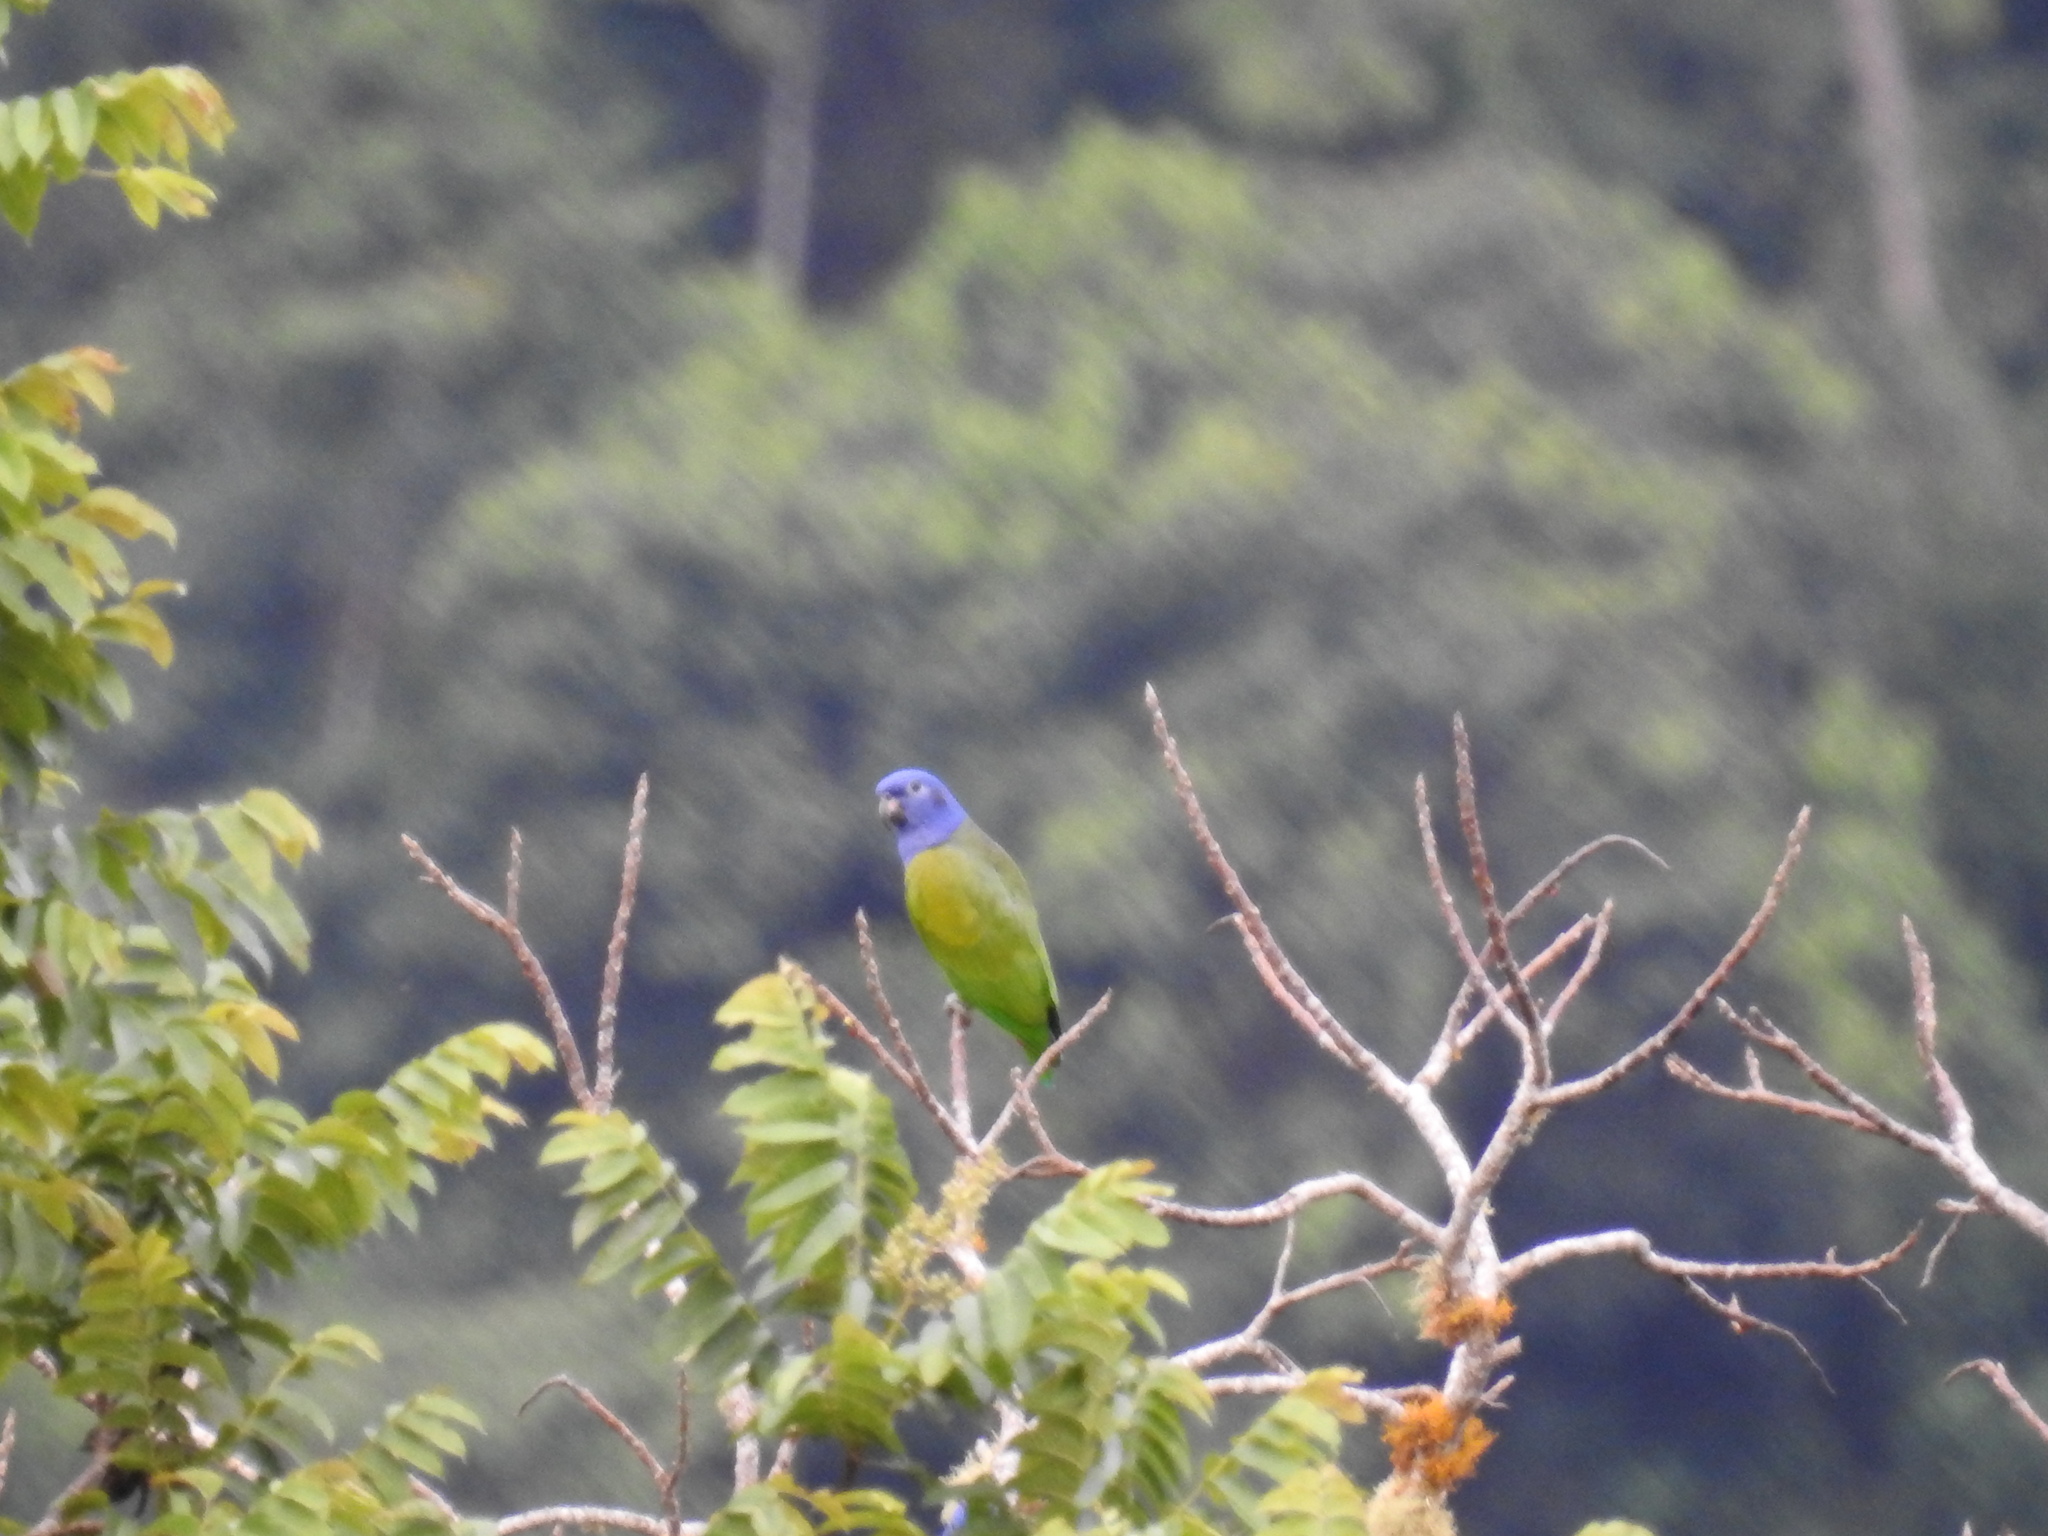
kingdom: Animalia
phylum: Chordata
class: Aves
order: Psittaciformes
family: Psittacidae
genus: Pionus
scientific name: Pionus menstruus
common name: Blue-headed parrot
